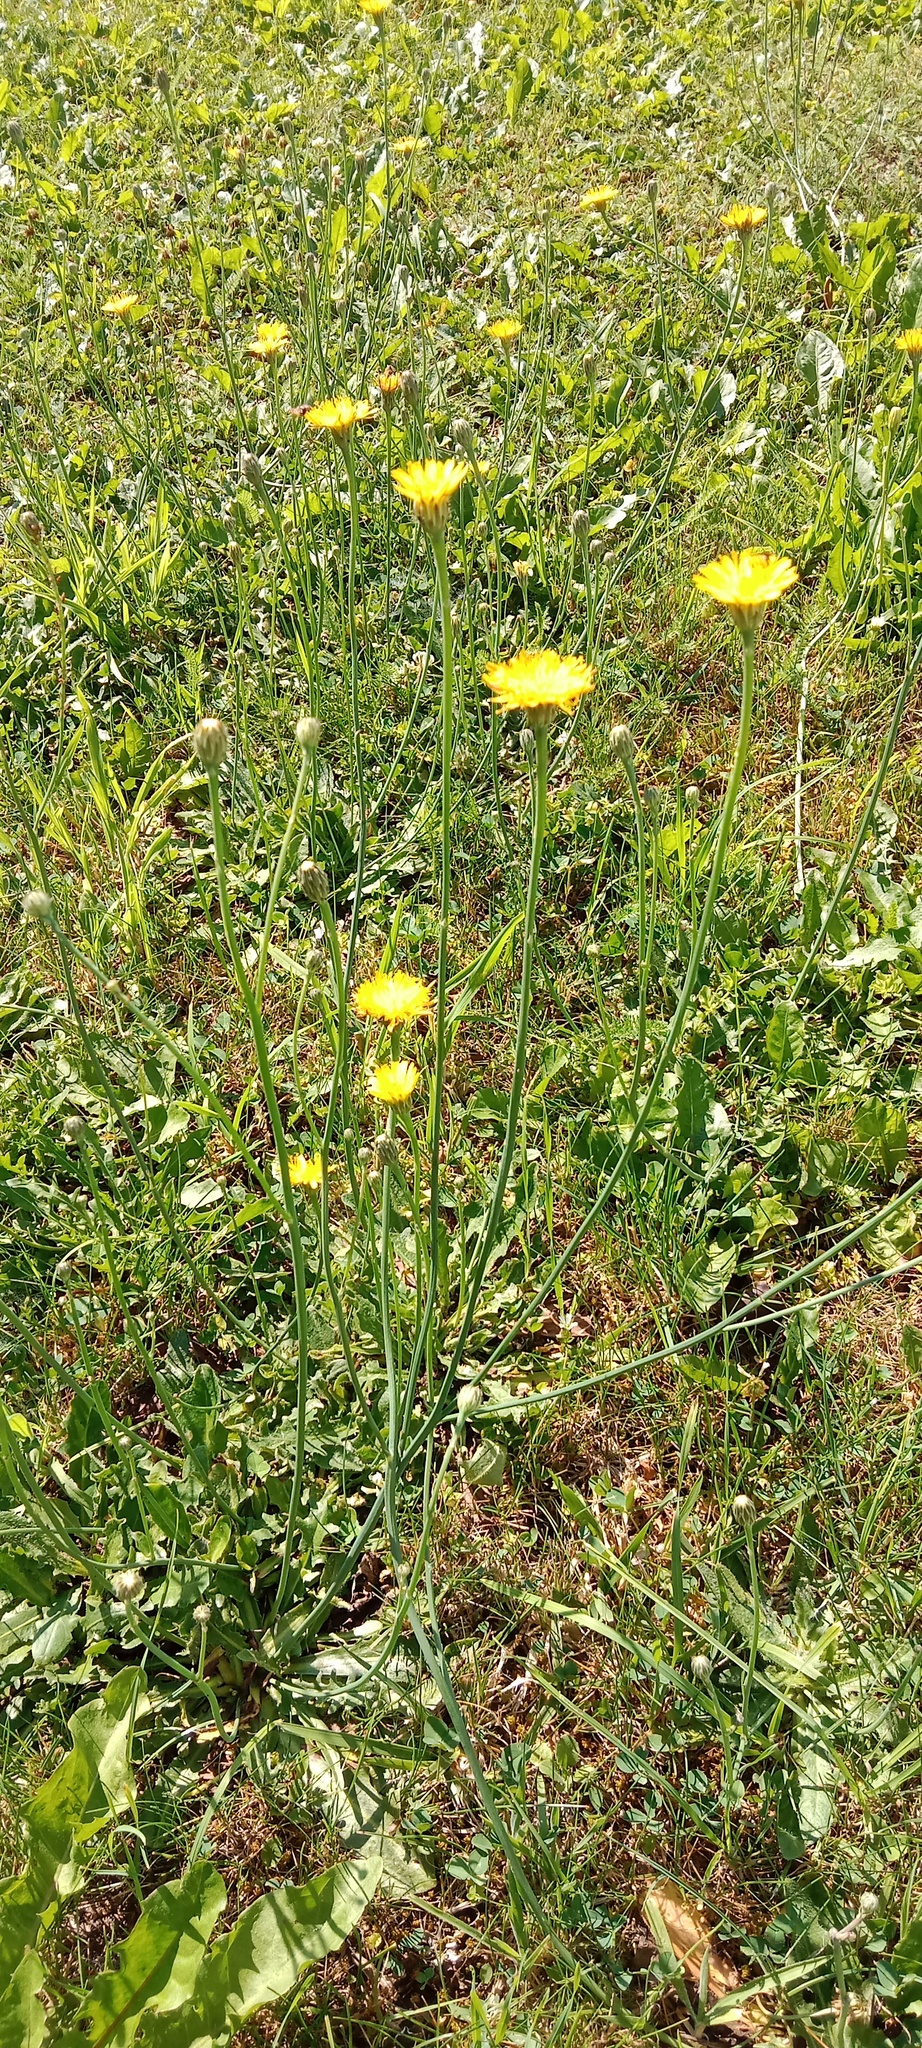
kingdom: Plantae
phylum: Tracheophyta
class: Magnoliopsida
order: Asterales
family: Asteraceae
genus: Hypochaeris
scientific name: Hypochaeris radicata
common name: Flatweed
